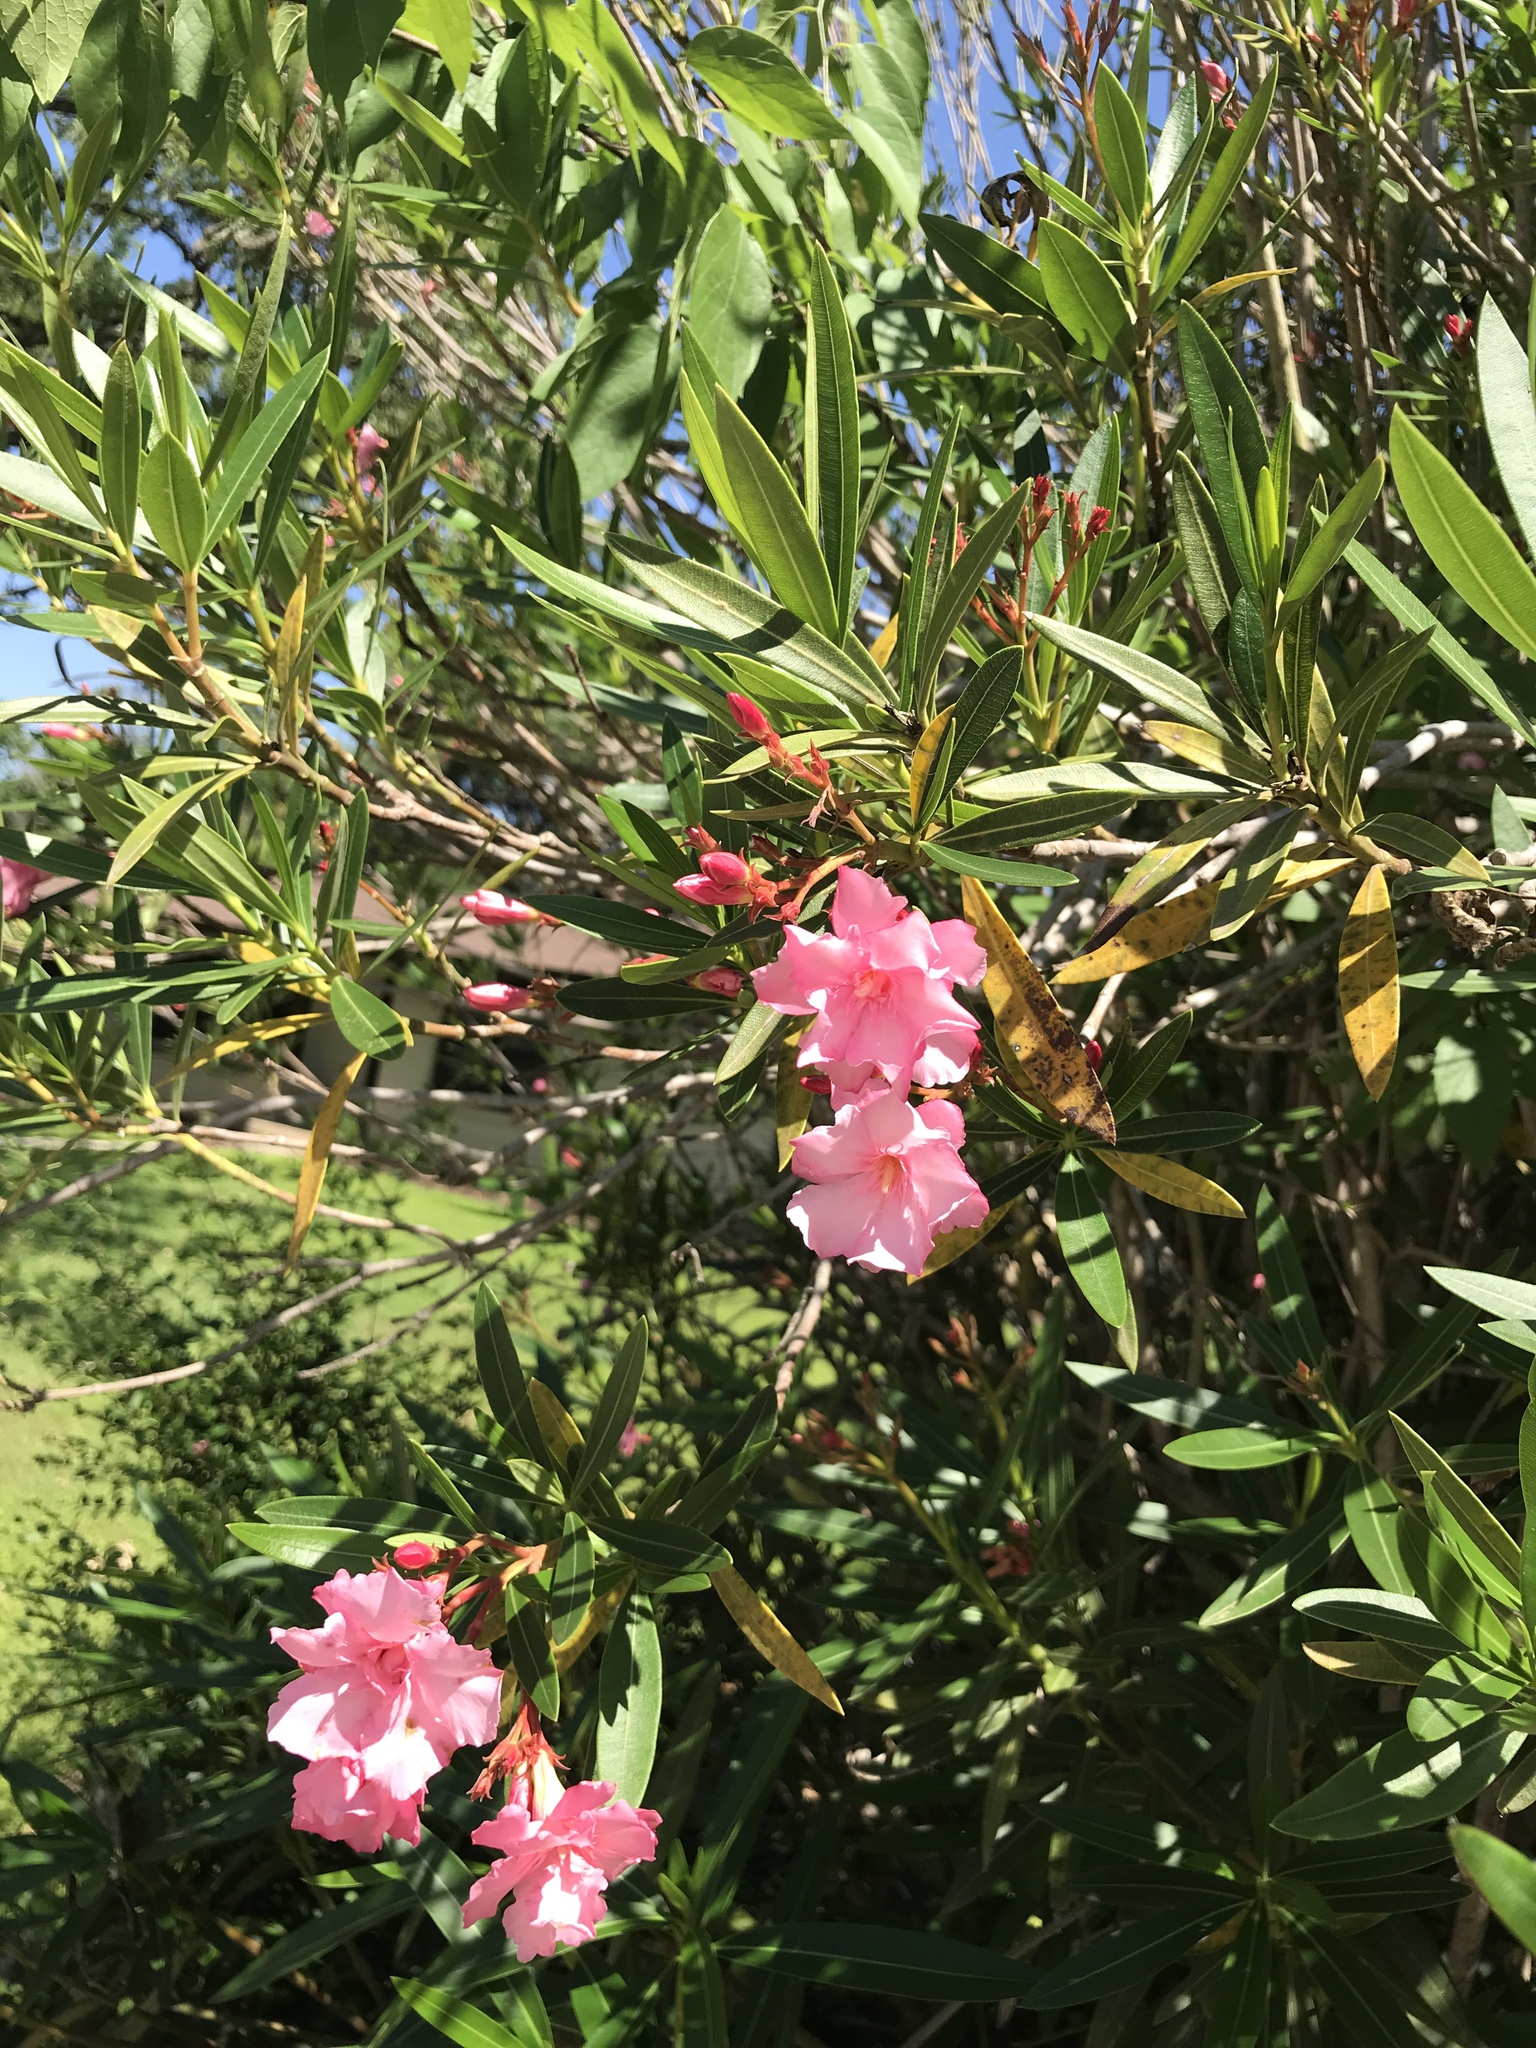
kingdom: Plantae
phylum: Tracheophyta
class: Magnoliopsida
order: Gentianales
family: Apocynaceae
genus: Nerium
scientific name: Nerium oleander
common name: Oleander
